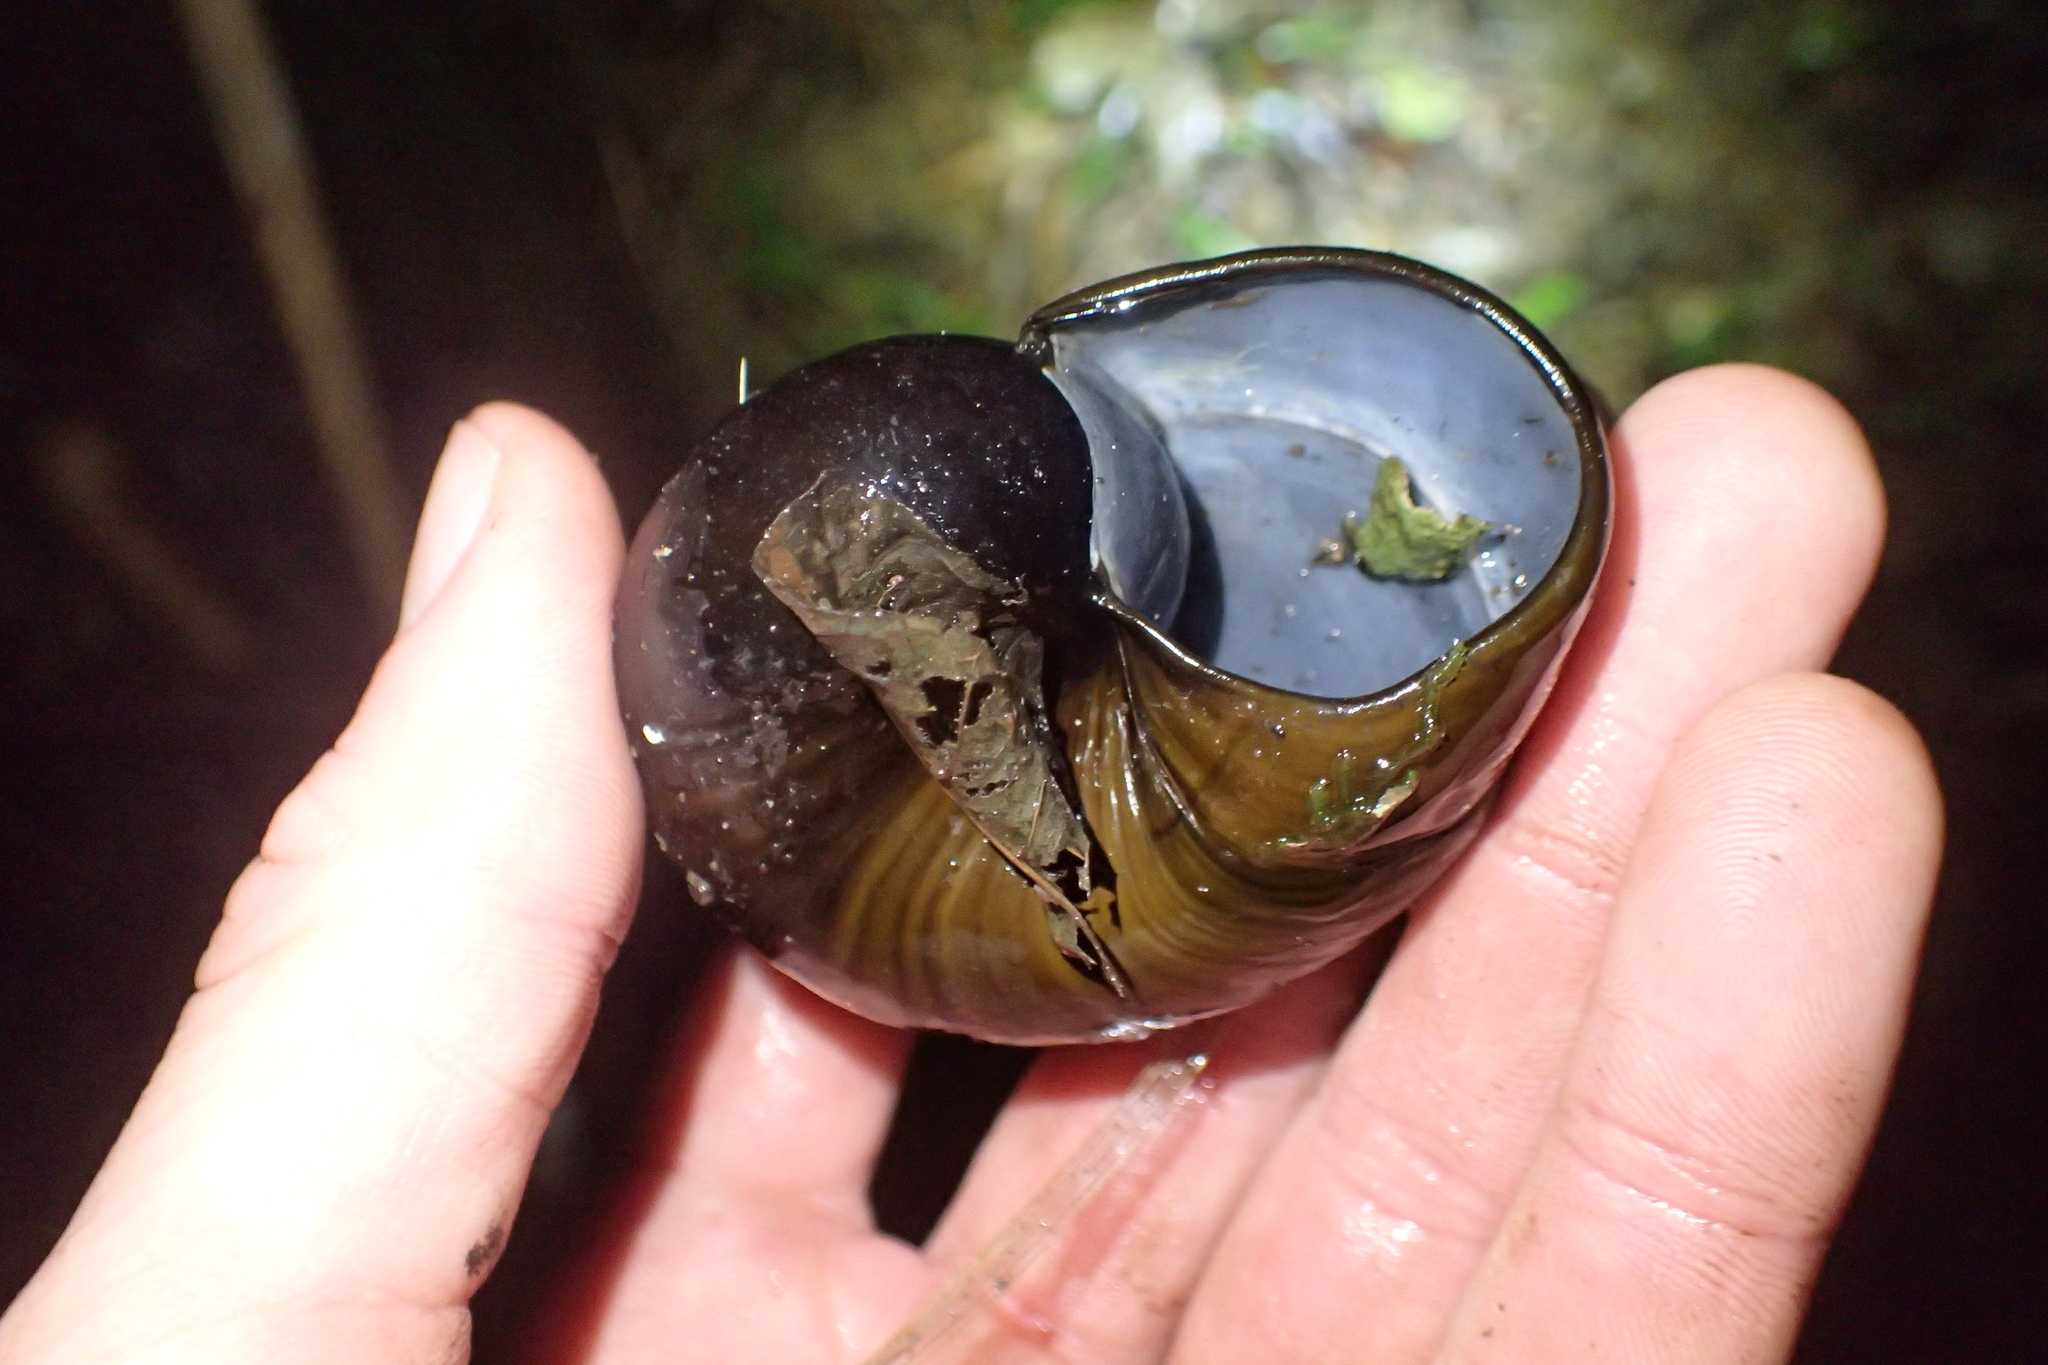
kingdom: Animalia
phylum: Mollusca
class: Gastropoda
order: Stylommatophora
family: Rhytididae
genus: Paryphanta
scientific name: Paryphanta busbyi
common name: Kauri snail
